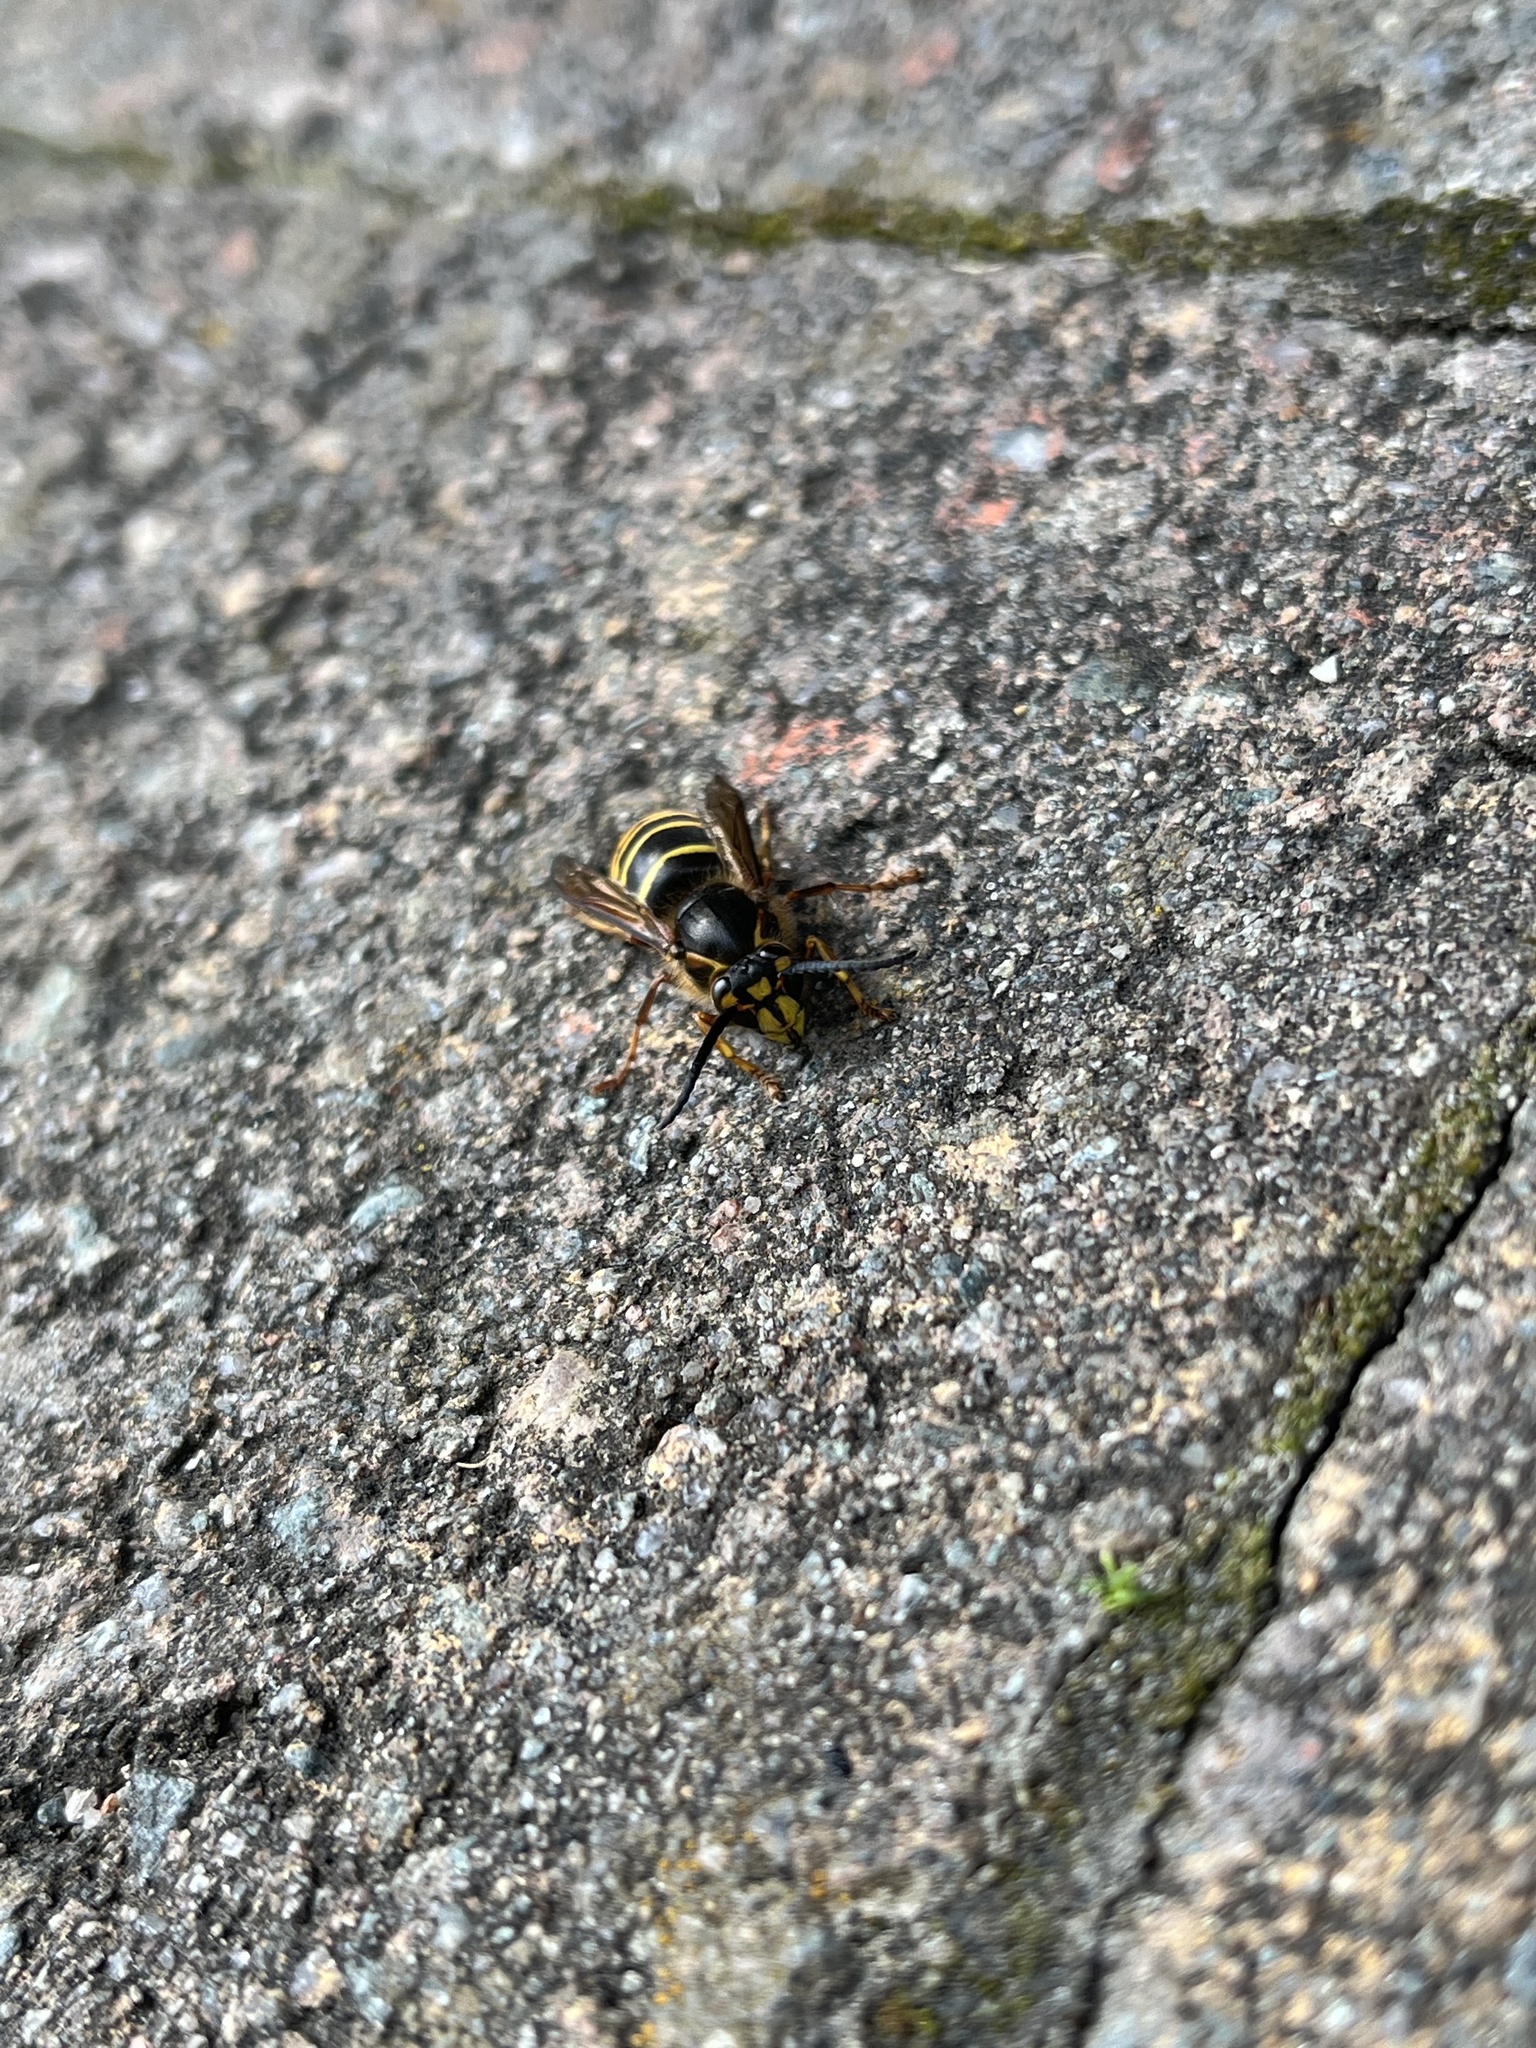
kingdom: Animalia
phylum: Arthropoda
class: Insecta
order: Hymenoptera
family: Vespidae
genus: Dolichovespula
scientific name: Dolichovespula media
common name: Median wasp
